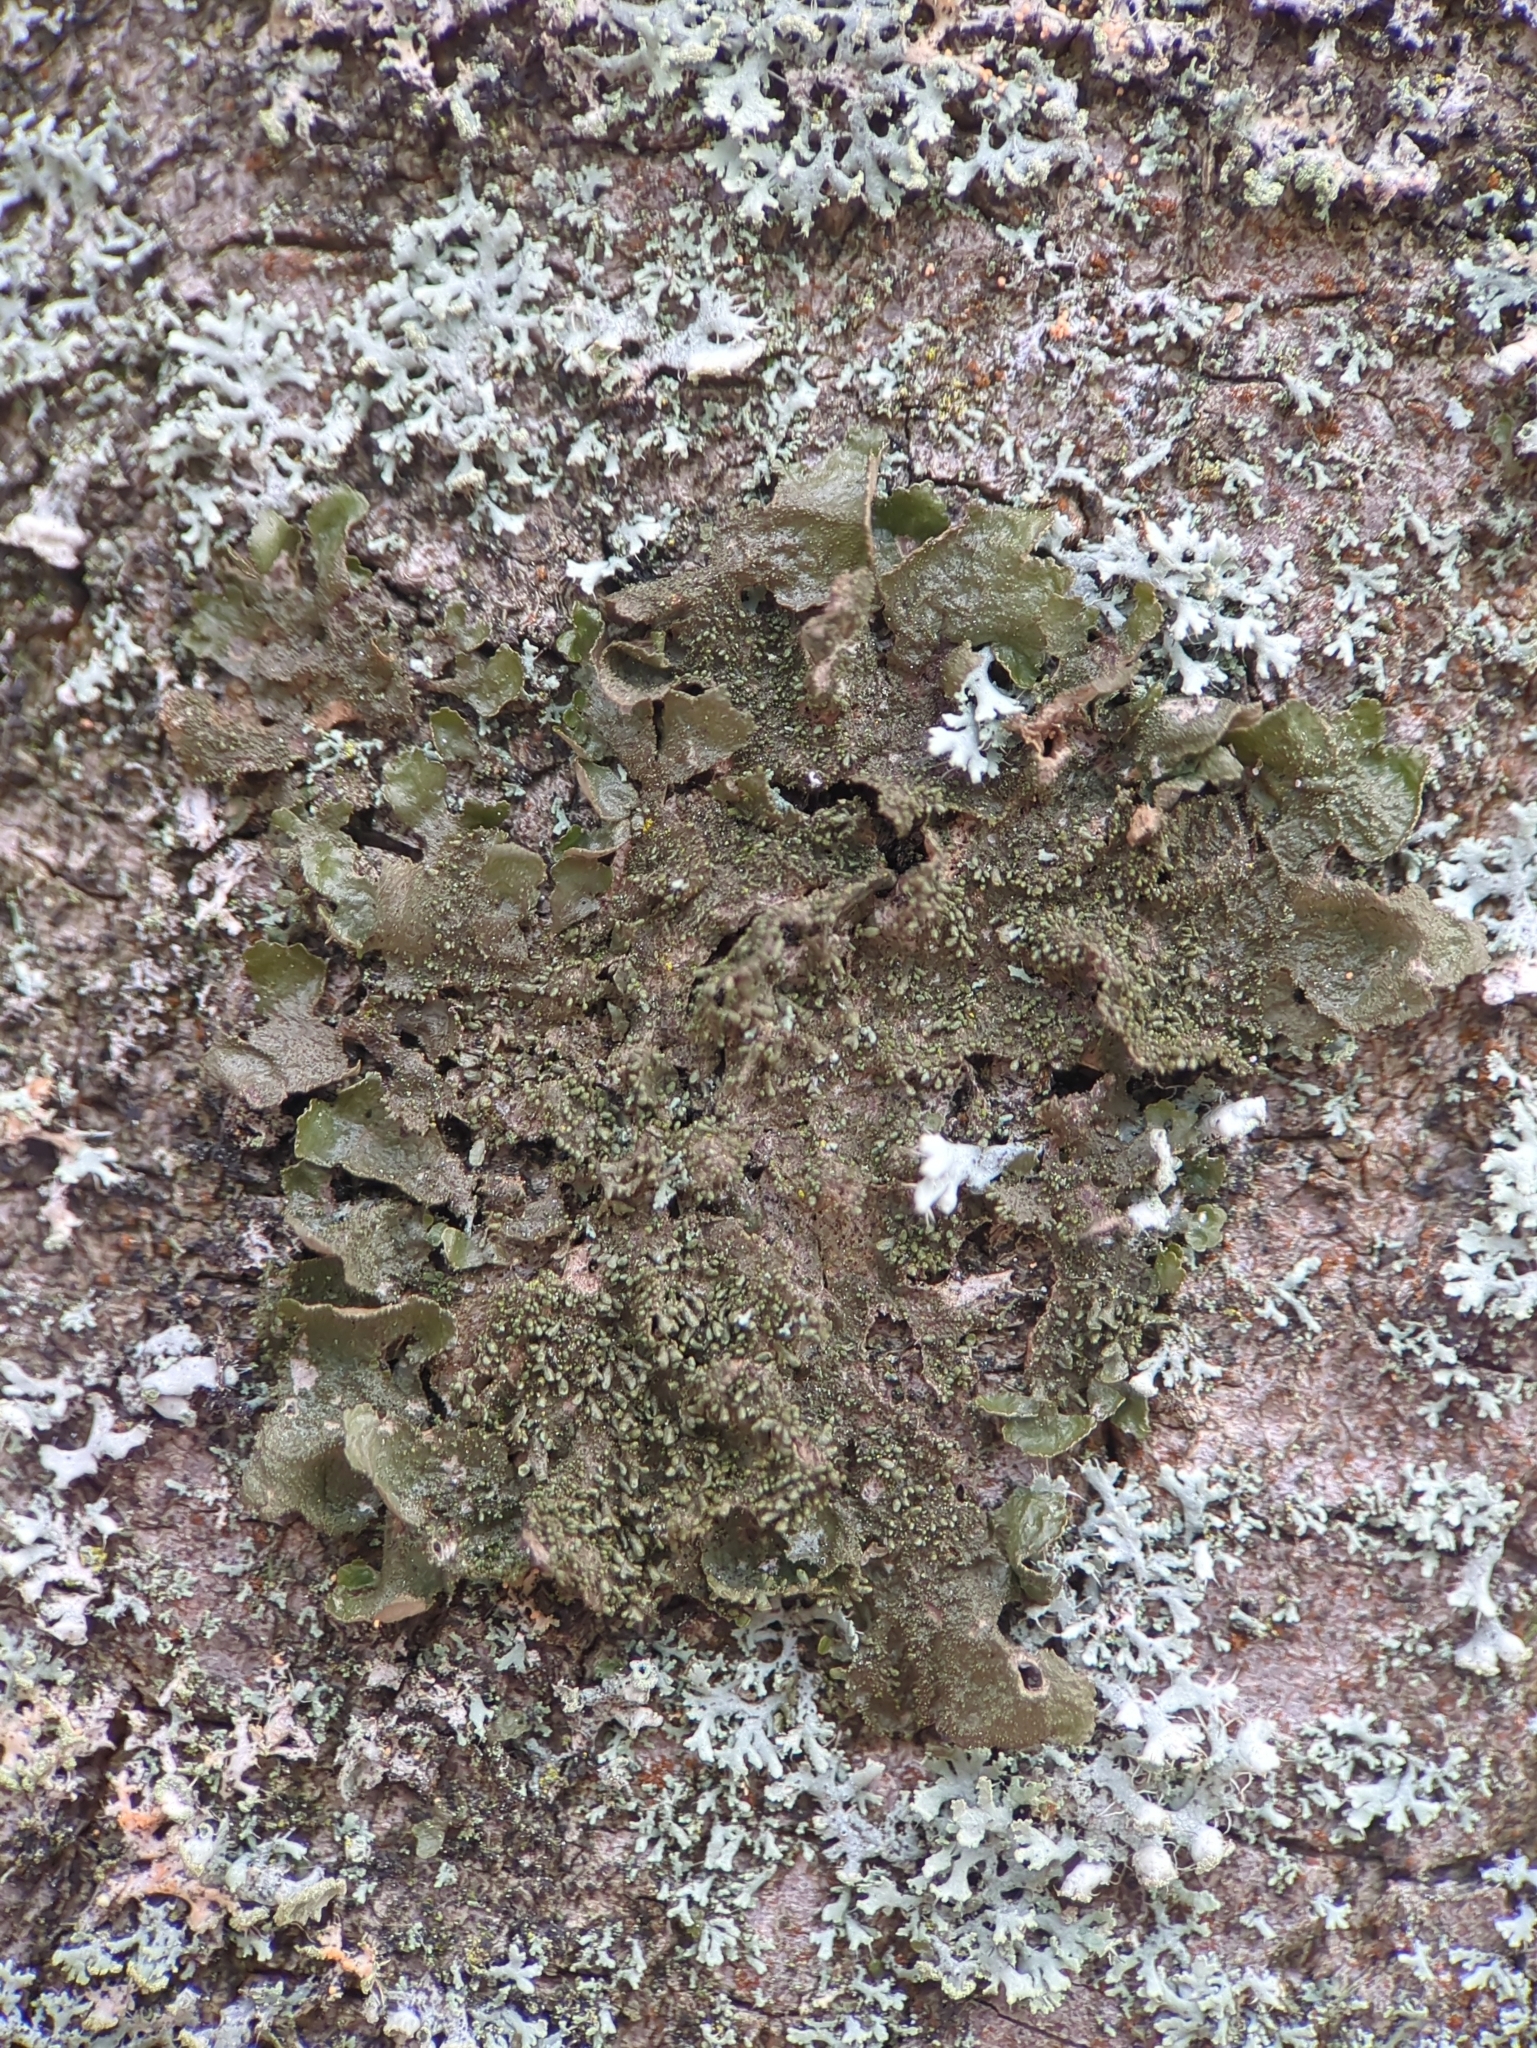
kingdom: Fungi
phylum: Ascomycota
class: Lecanoromycetes
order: Lecanorales
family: Parmeliaceae
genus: Melanohalea
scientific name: Melanohalea exasperatula
